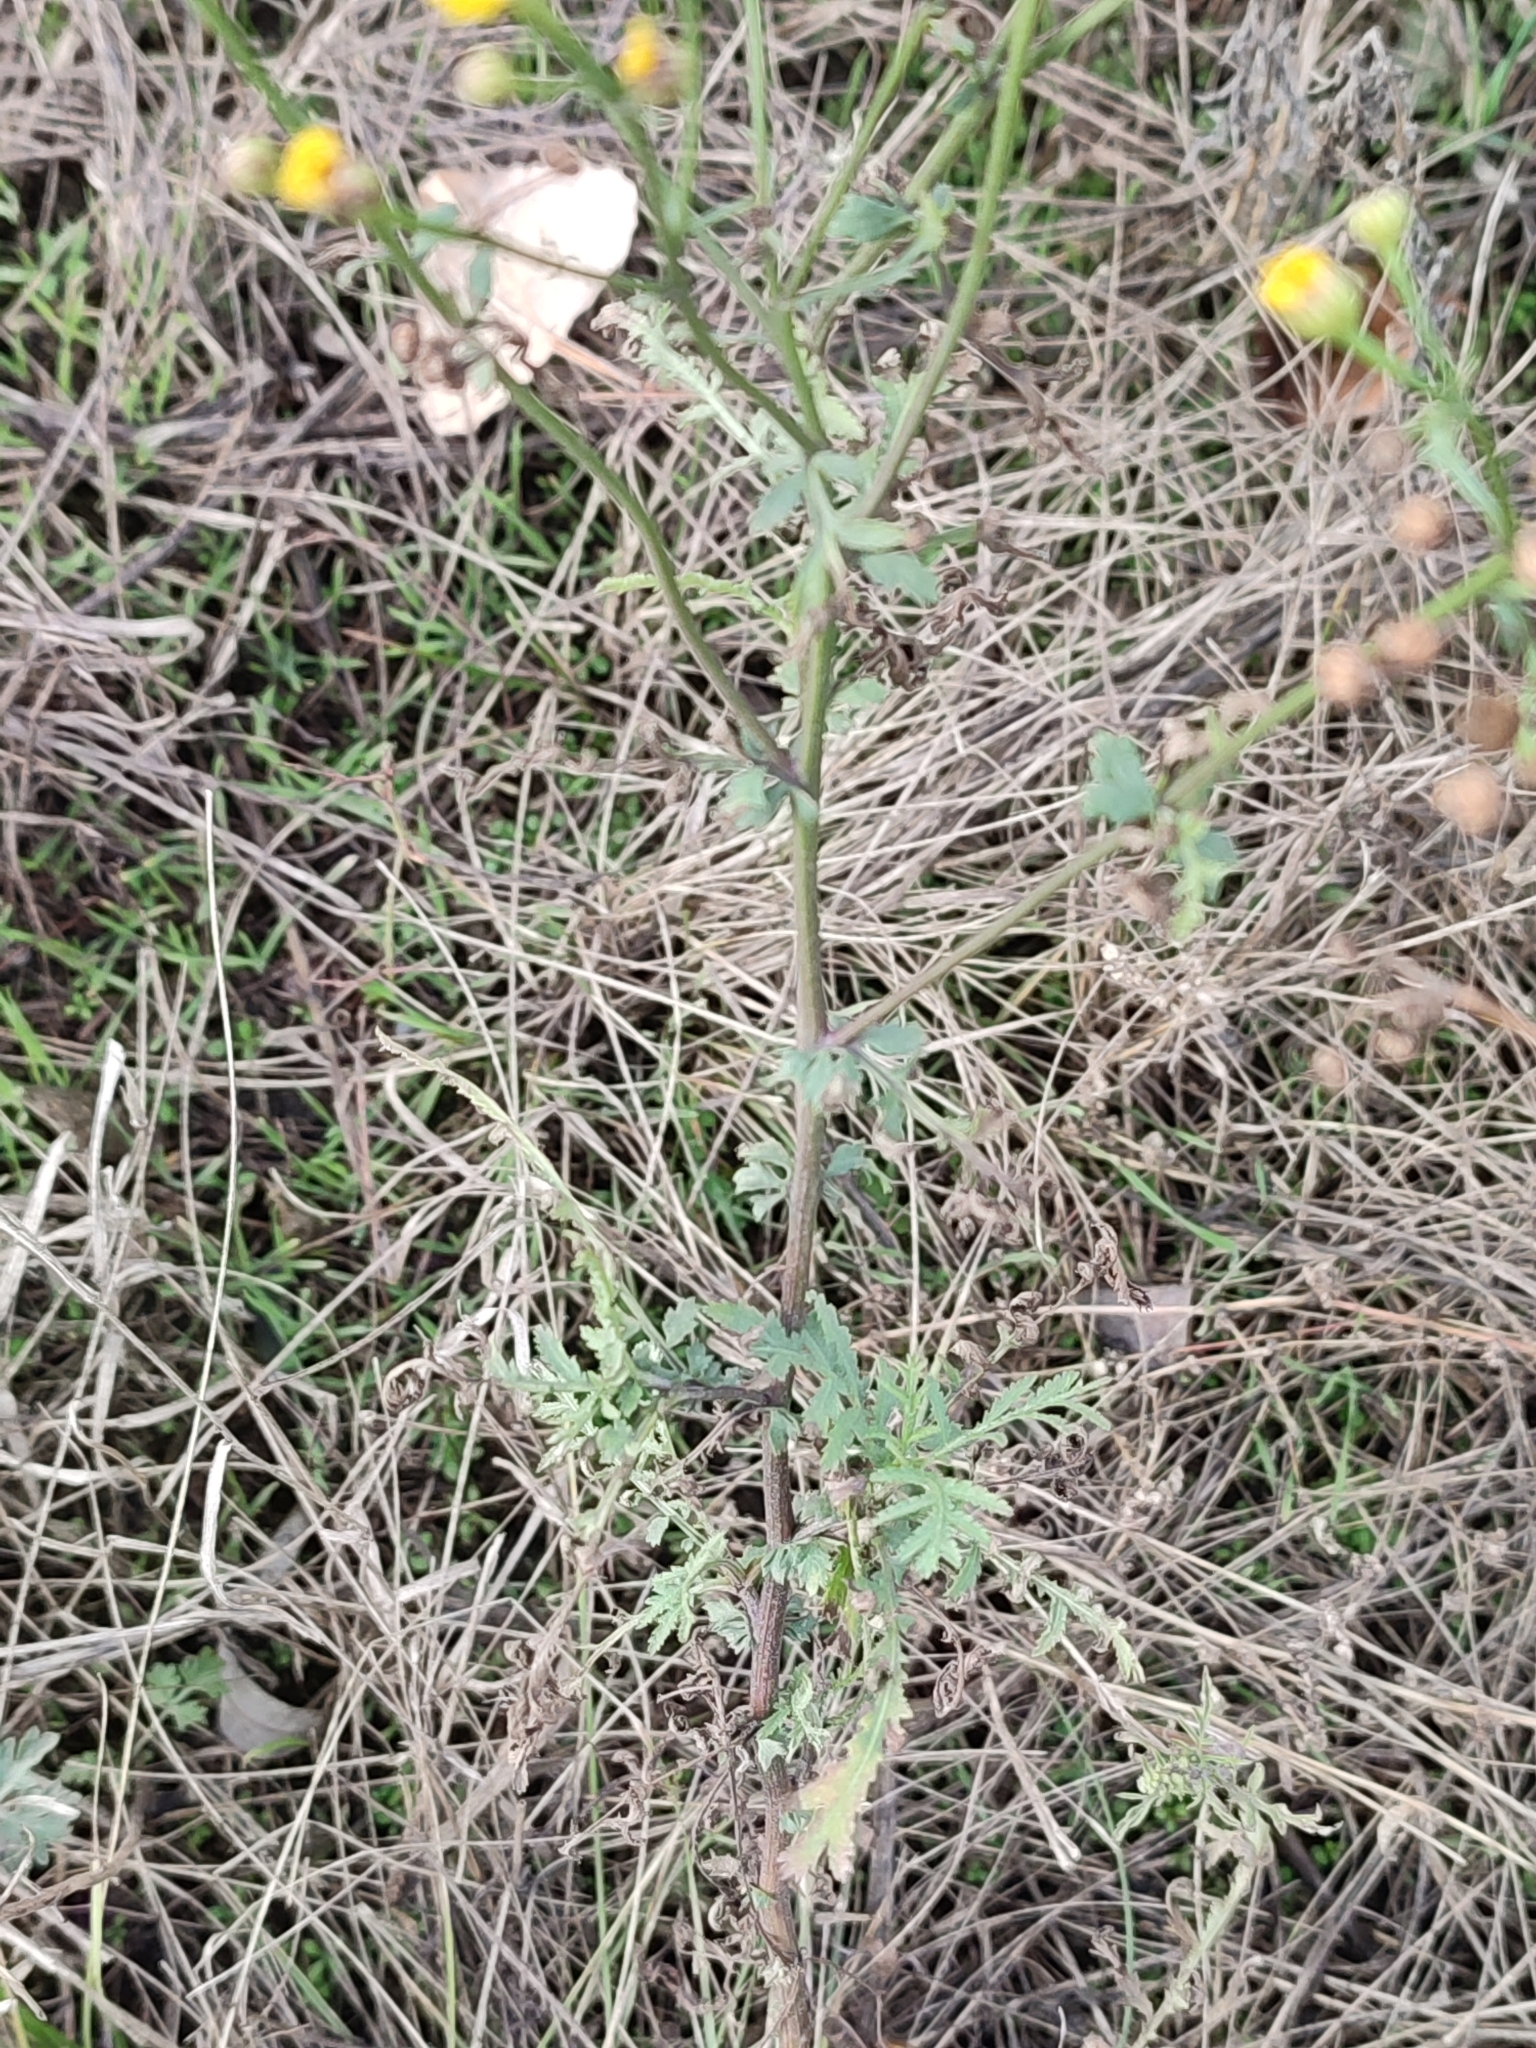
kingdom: Plantae
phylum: Tracheophyta
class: Magnoliopsida
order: Asterales
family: Asteraceae
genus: Tanacetum
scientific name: Tanacetum vulgare
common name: Common tansy
